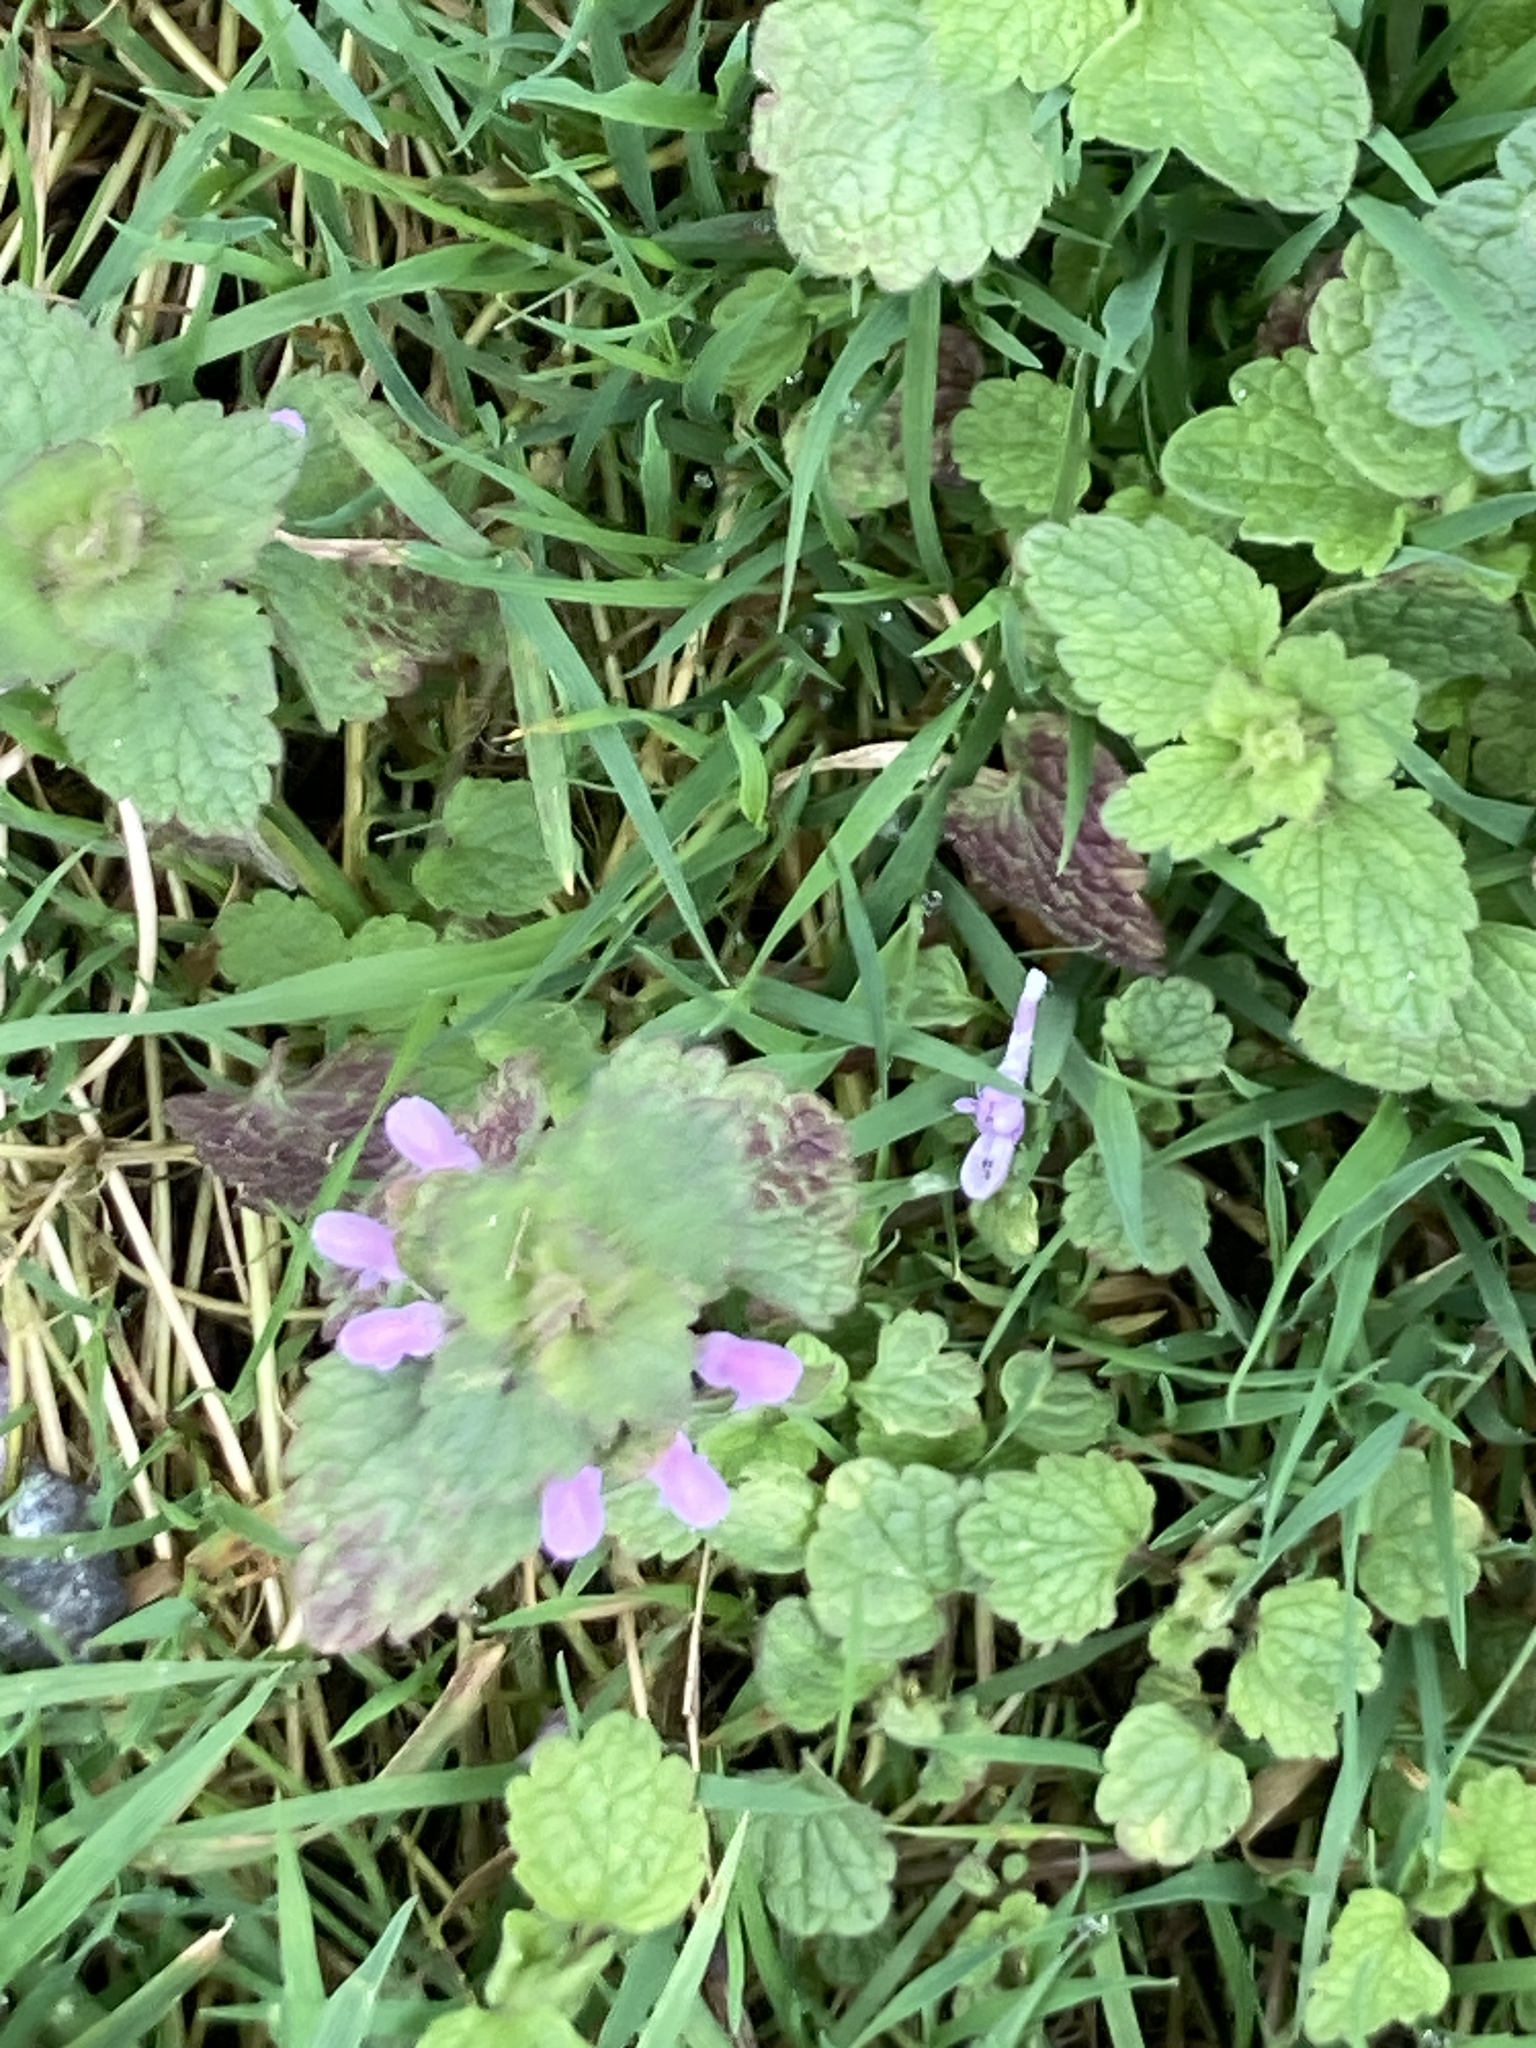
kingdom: Plantae
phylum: Tracheophyta
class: Magnoliopsida
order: Lamiales
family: Lamiaceae
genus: Lamium
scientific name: Lamium purpureum
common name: Red dead-nettle
